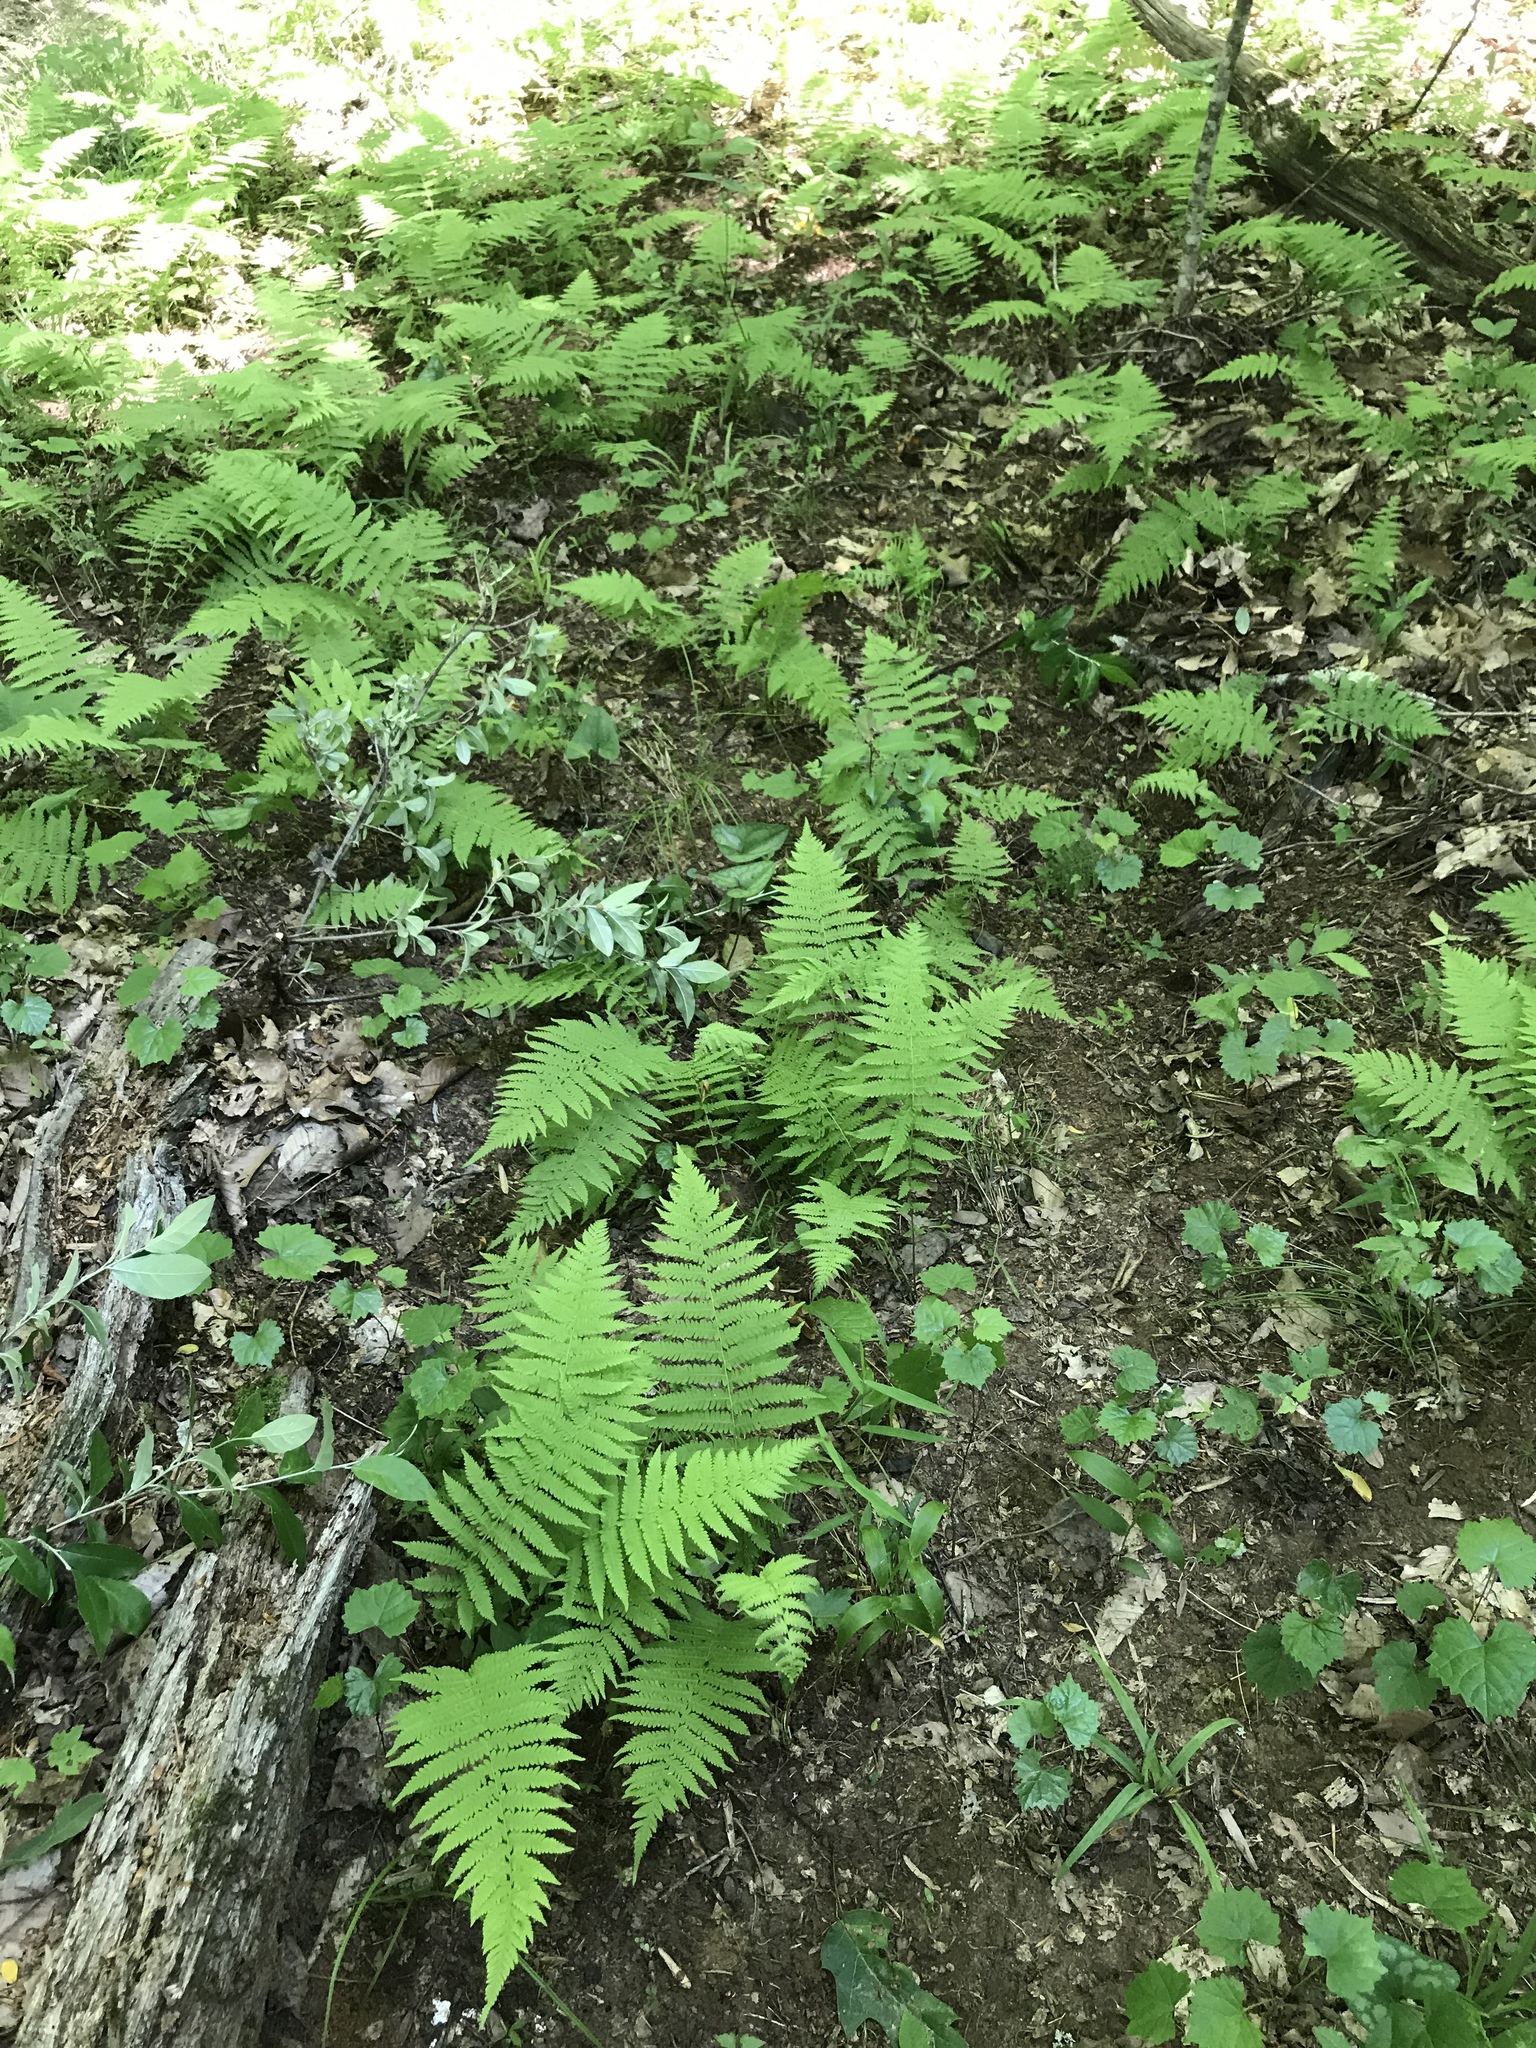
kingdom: Plantae
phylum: Tracheophyta
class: Polypodiopsida
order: Polypodiales
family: Thelypteridaceae
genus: Amauropelta
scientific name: Amauropelta noveboracensis
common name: New york fern
